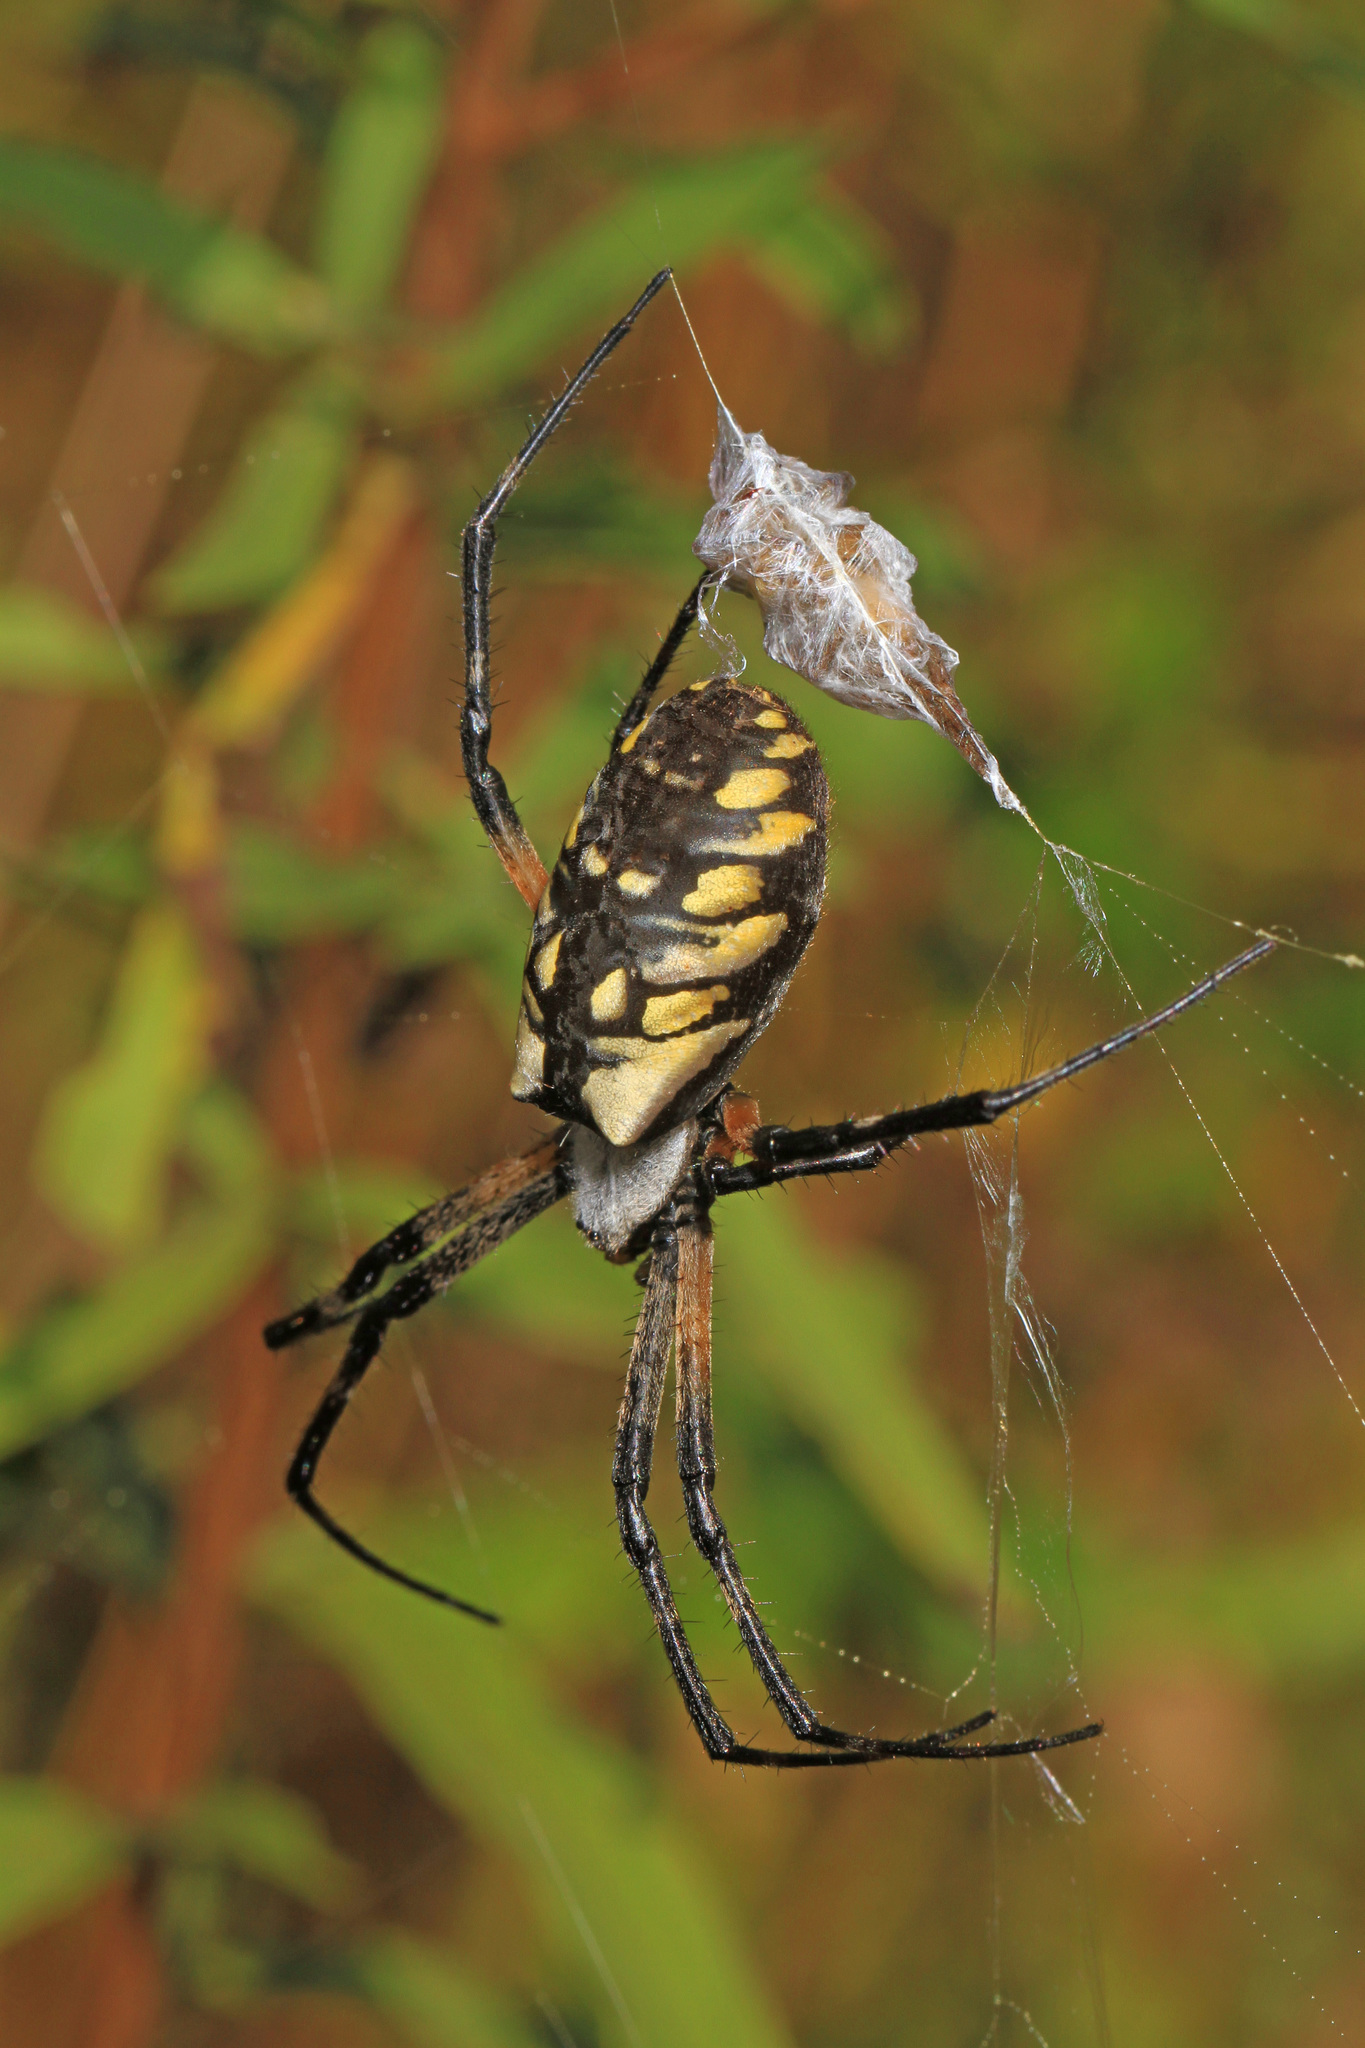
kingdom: Animalia
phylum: Arthropoda
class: Arachnida
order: Araneae
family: Araneidae
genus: Argiope
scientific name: Argiope aurantia
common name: Orb weavers
